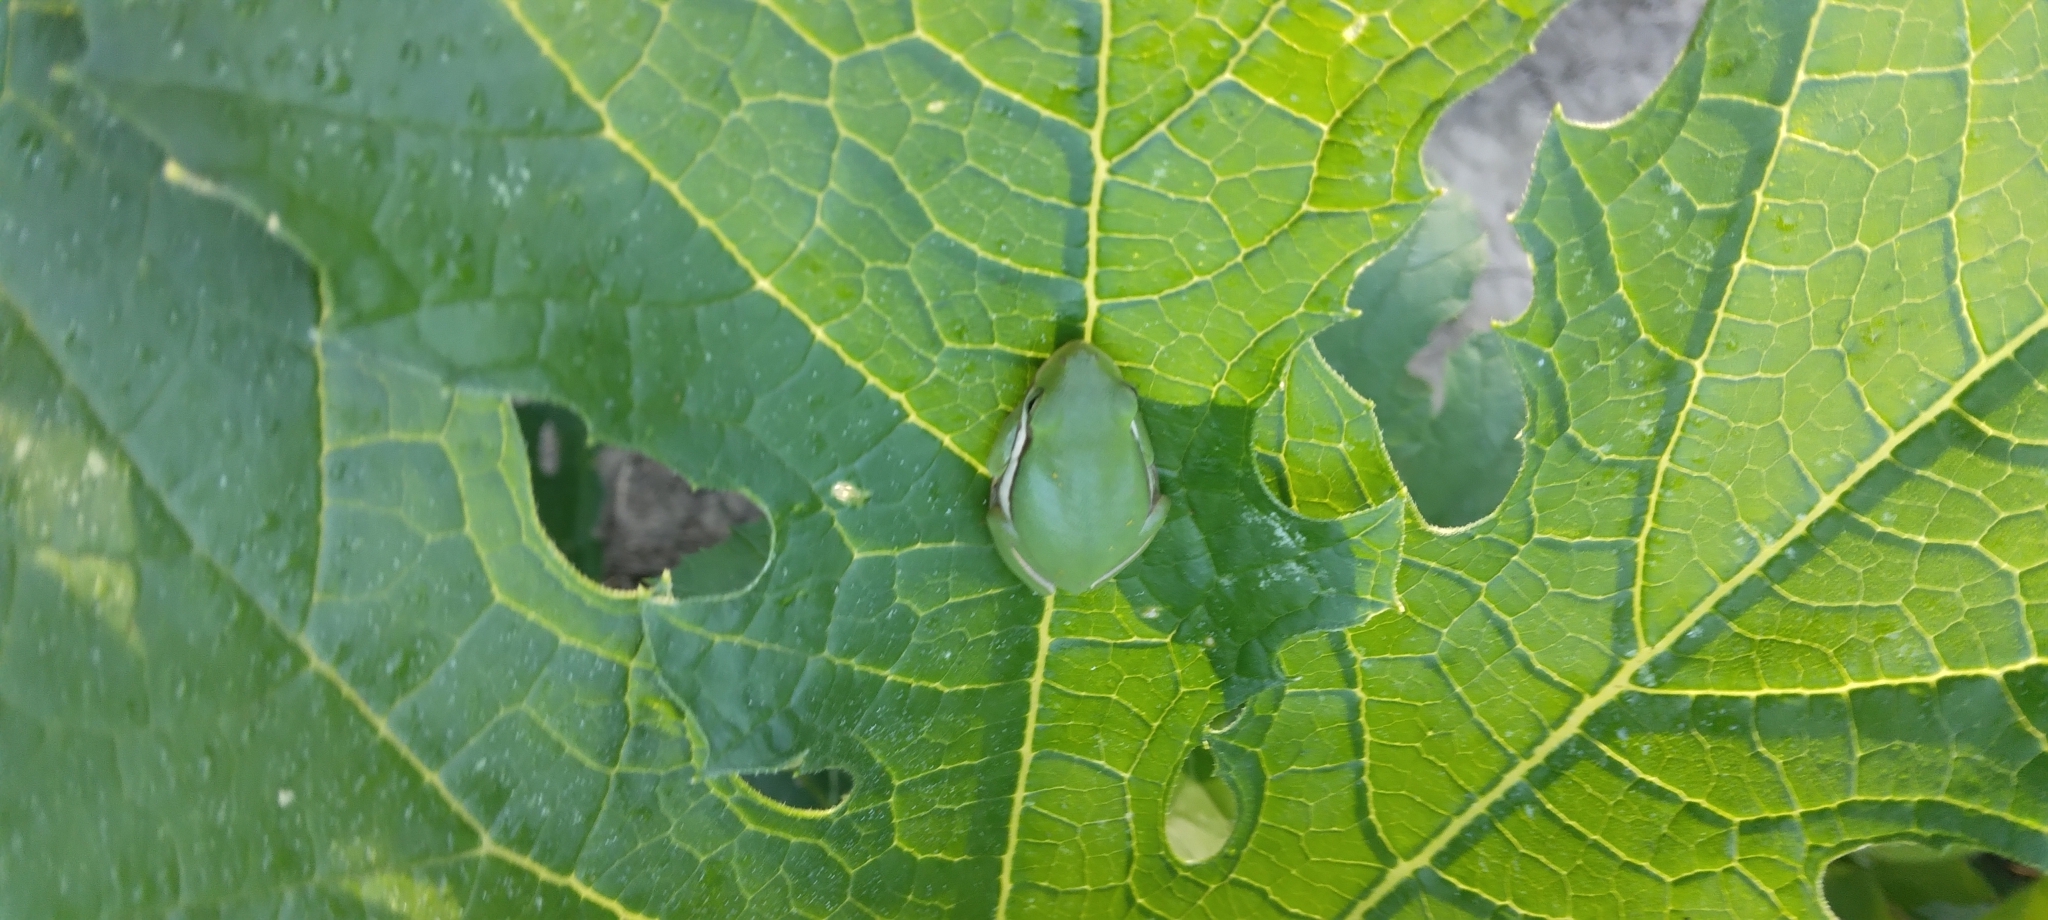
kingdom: Animalia
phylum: Chordata
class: Amphibia
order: Anura
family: Hylidae
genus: Dryophytes
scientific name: Dryophytes cinereus
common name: Green treefrog
